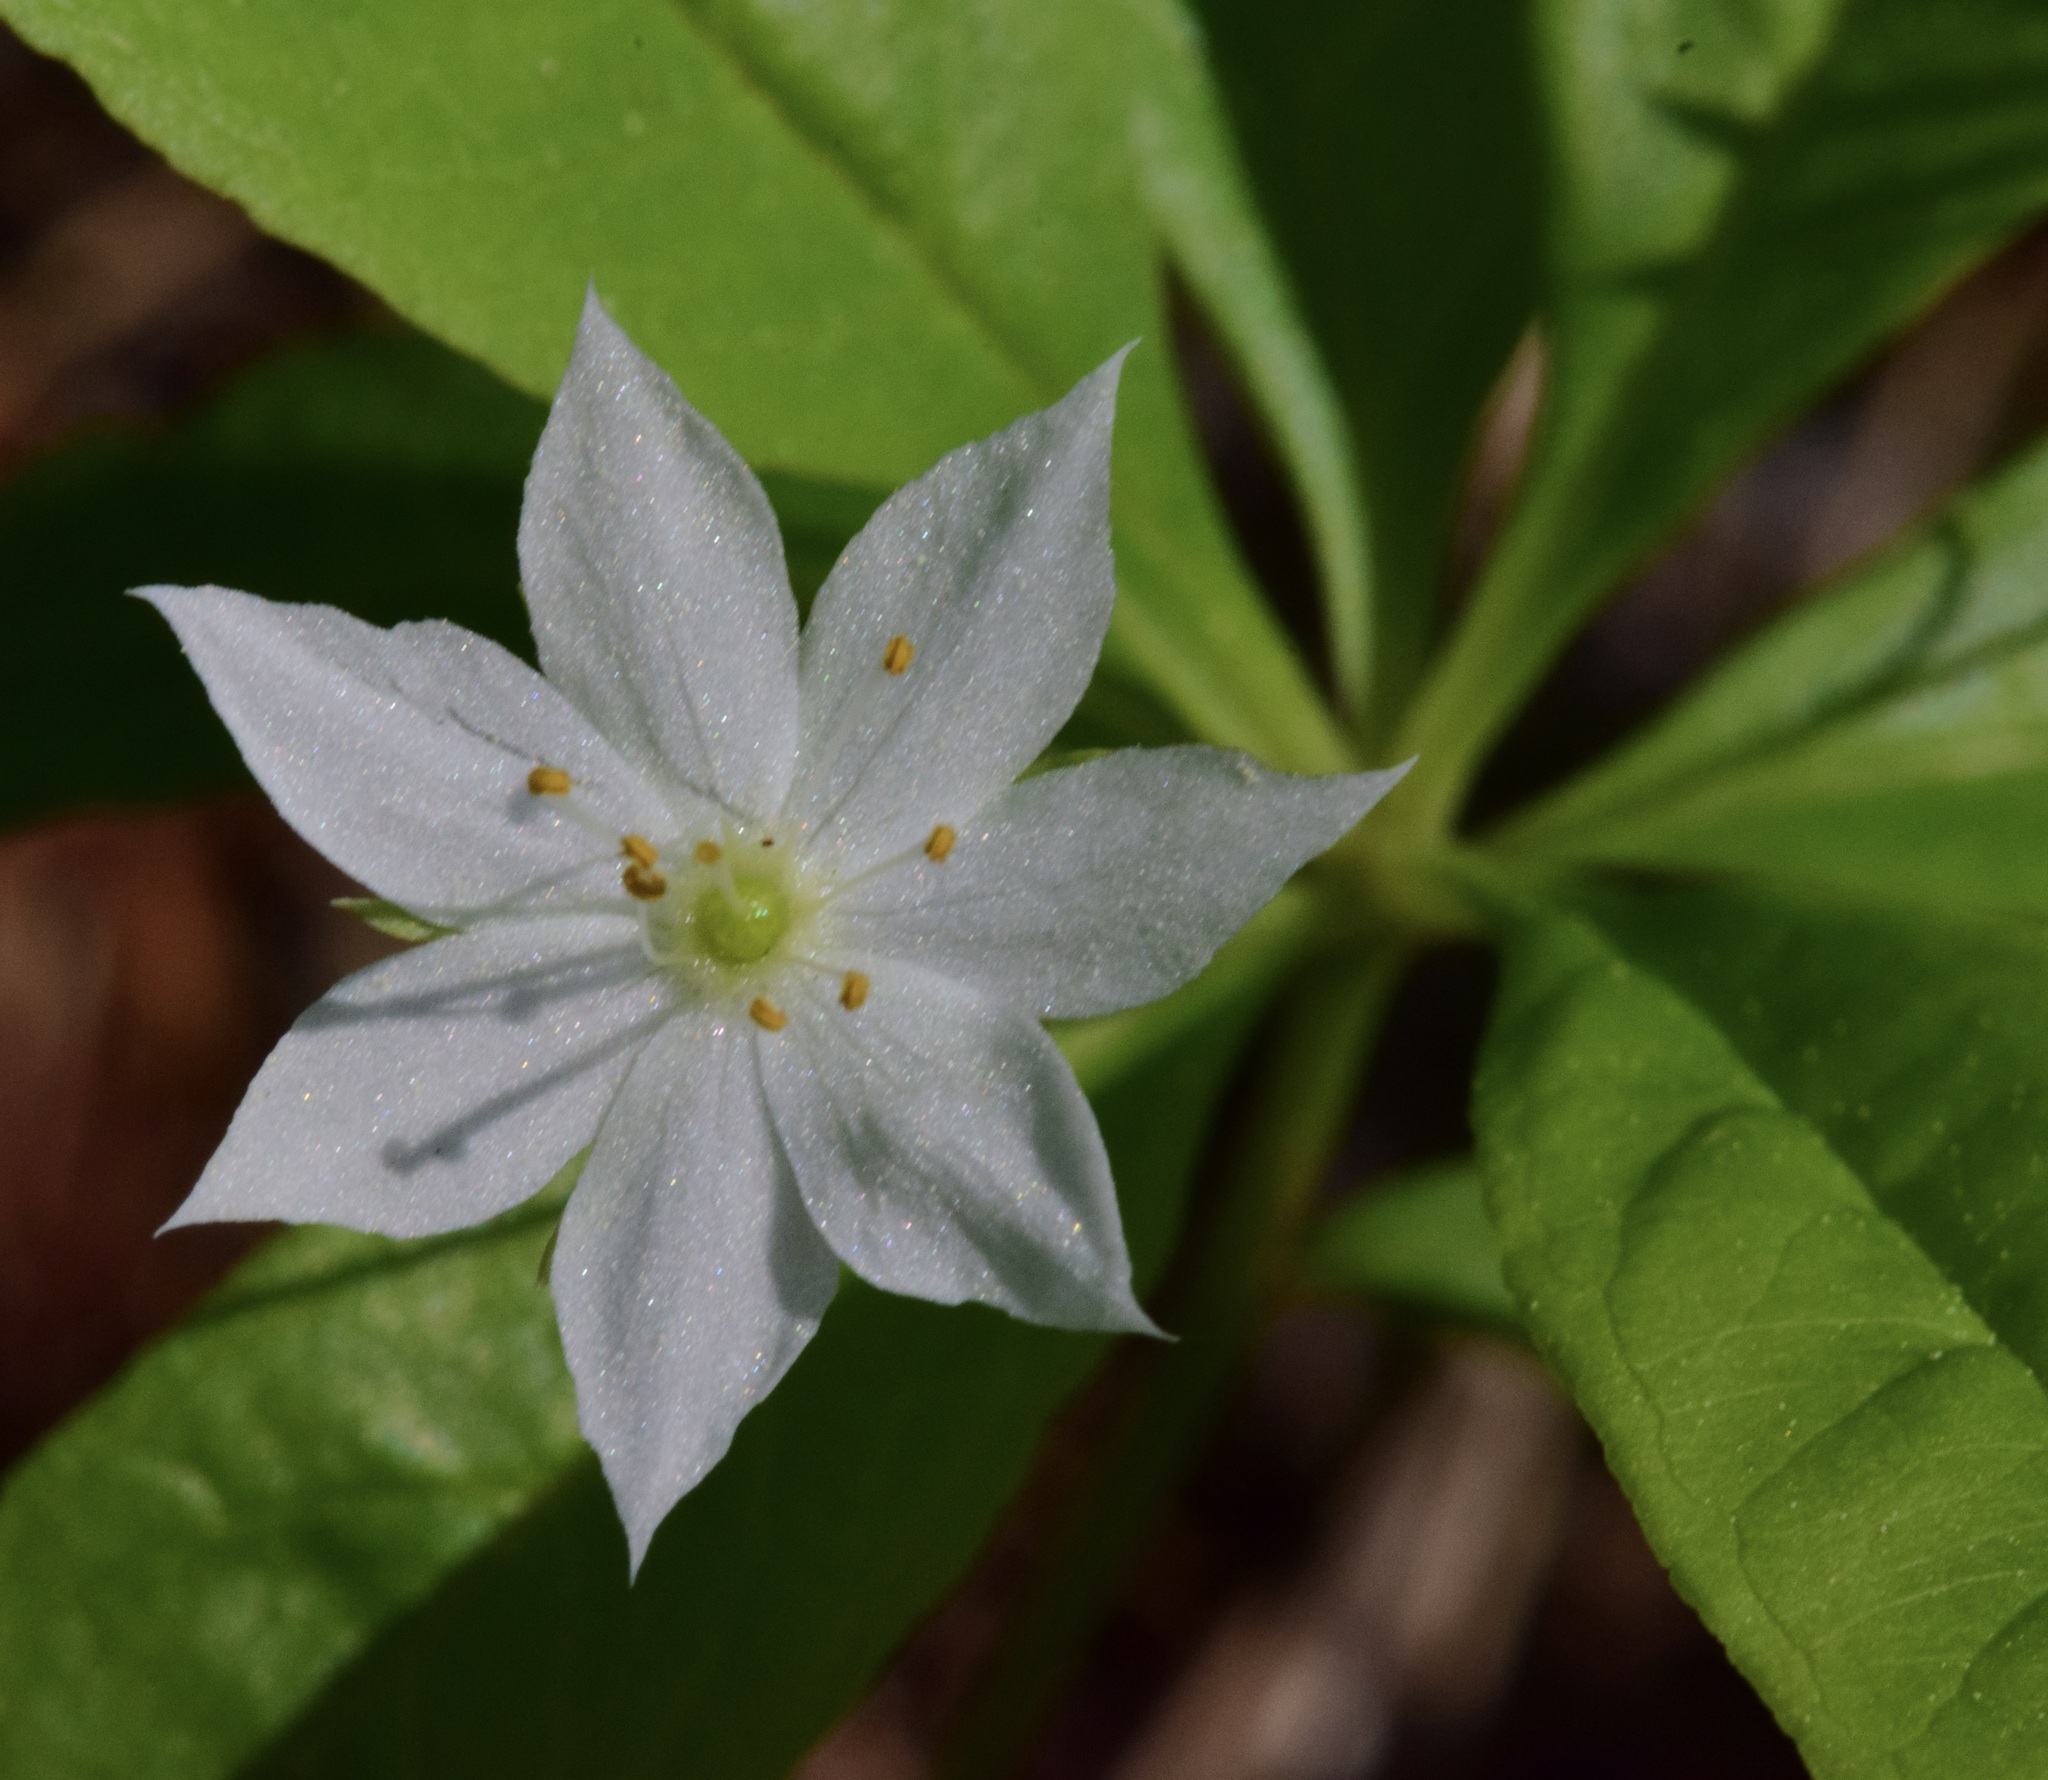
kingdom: Plantae
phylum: Tracheophyta
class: Magnoliopsida
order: Ericales
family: Primulaceae
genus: Lysimachia
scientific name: Lysimachia borealis
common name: American starflower
